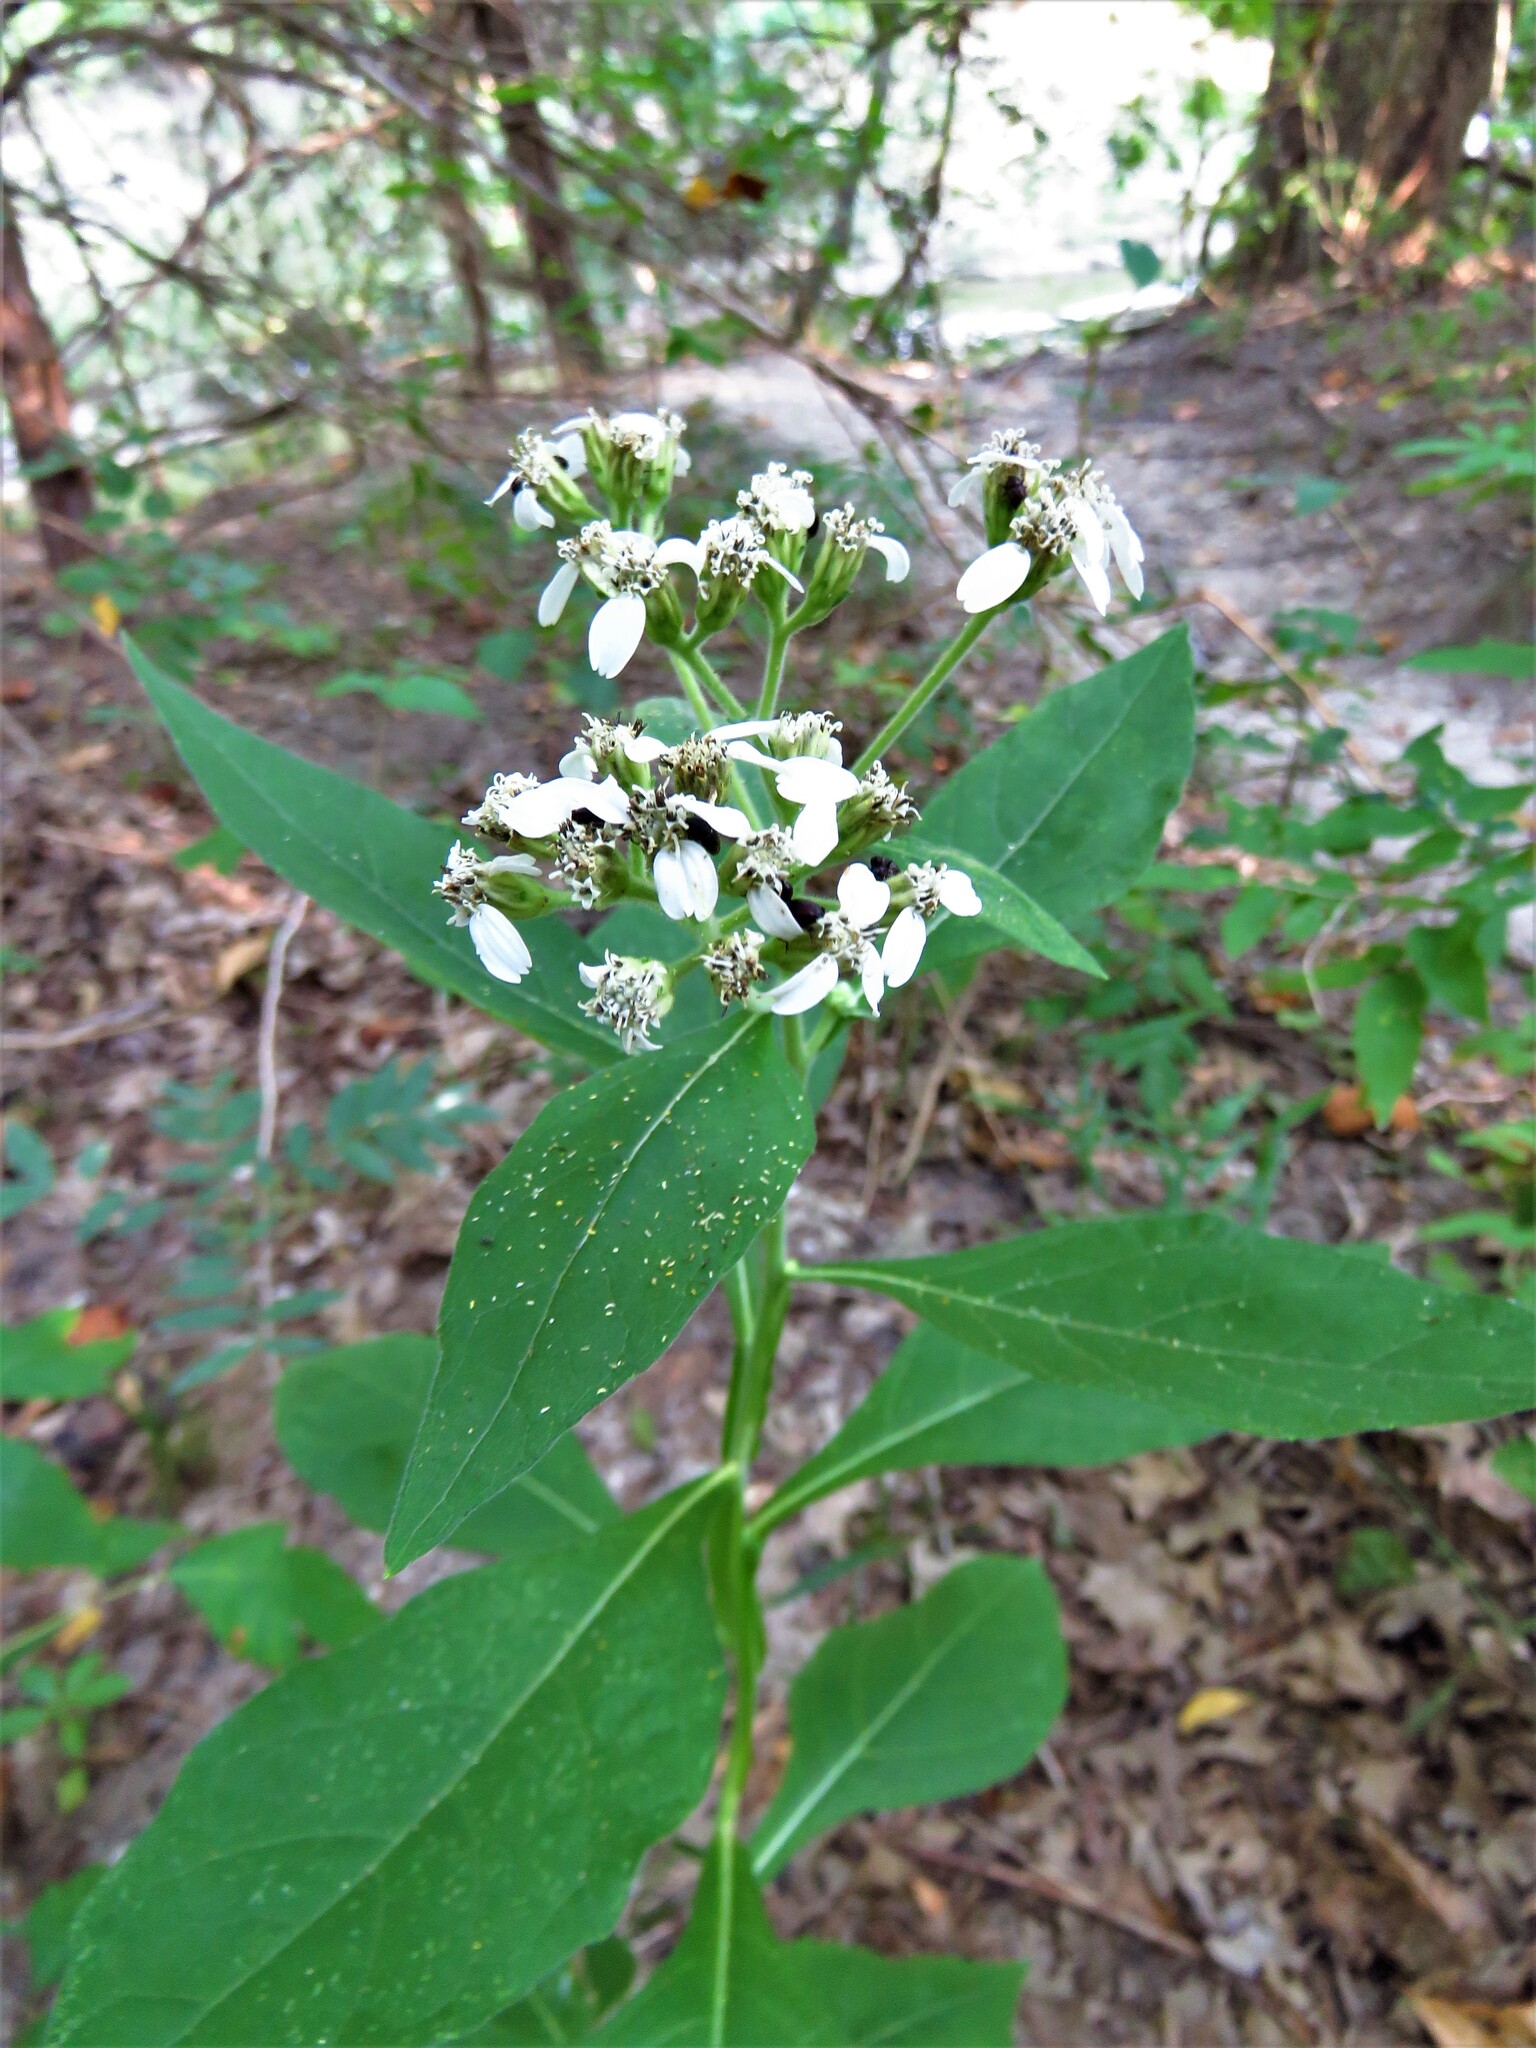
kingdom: Plantae
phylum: Tracheophyta
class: Magnoliopsida
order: Asterales
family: Asteraceae
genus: Verbesina
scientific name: Verbesina virginica
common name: Frostweed
